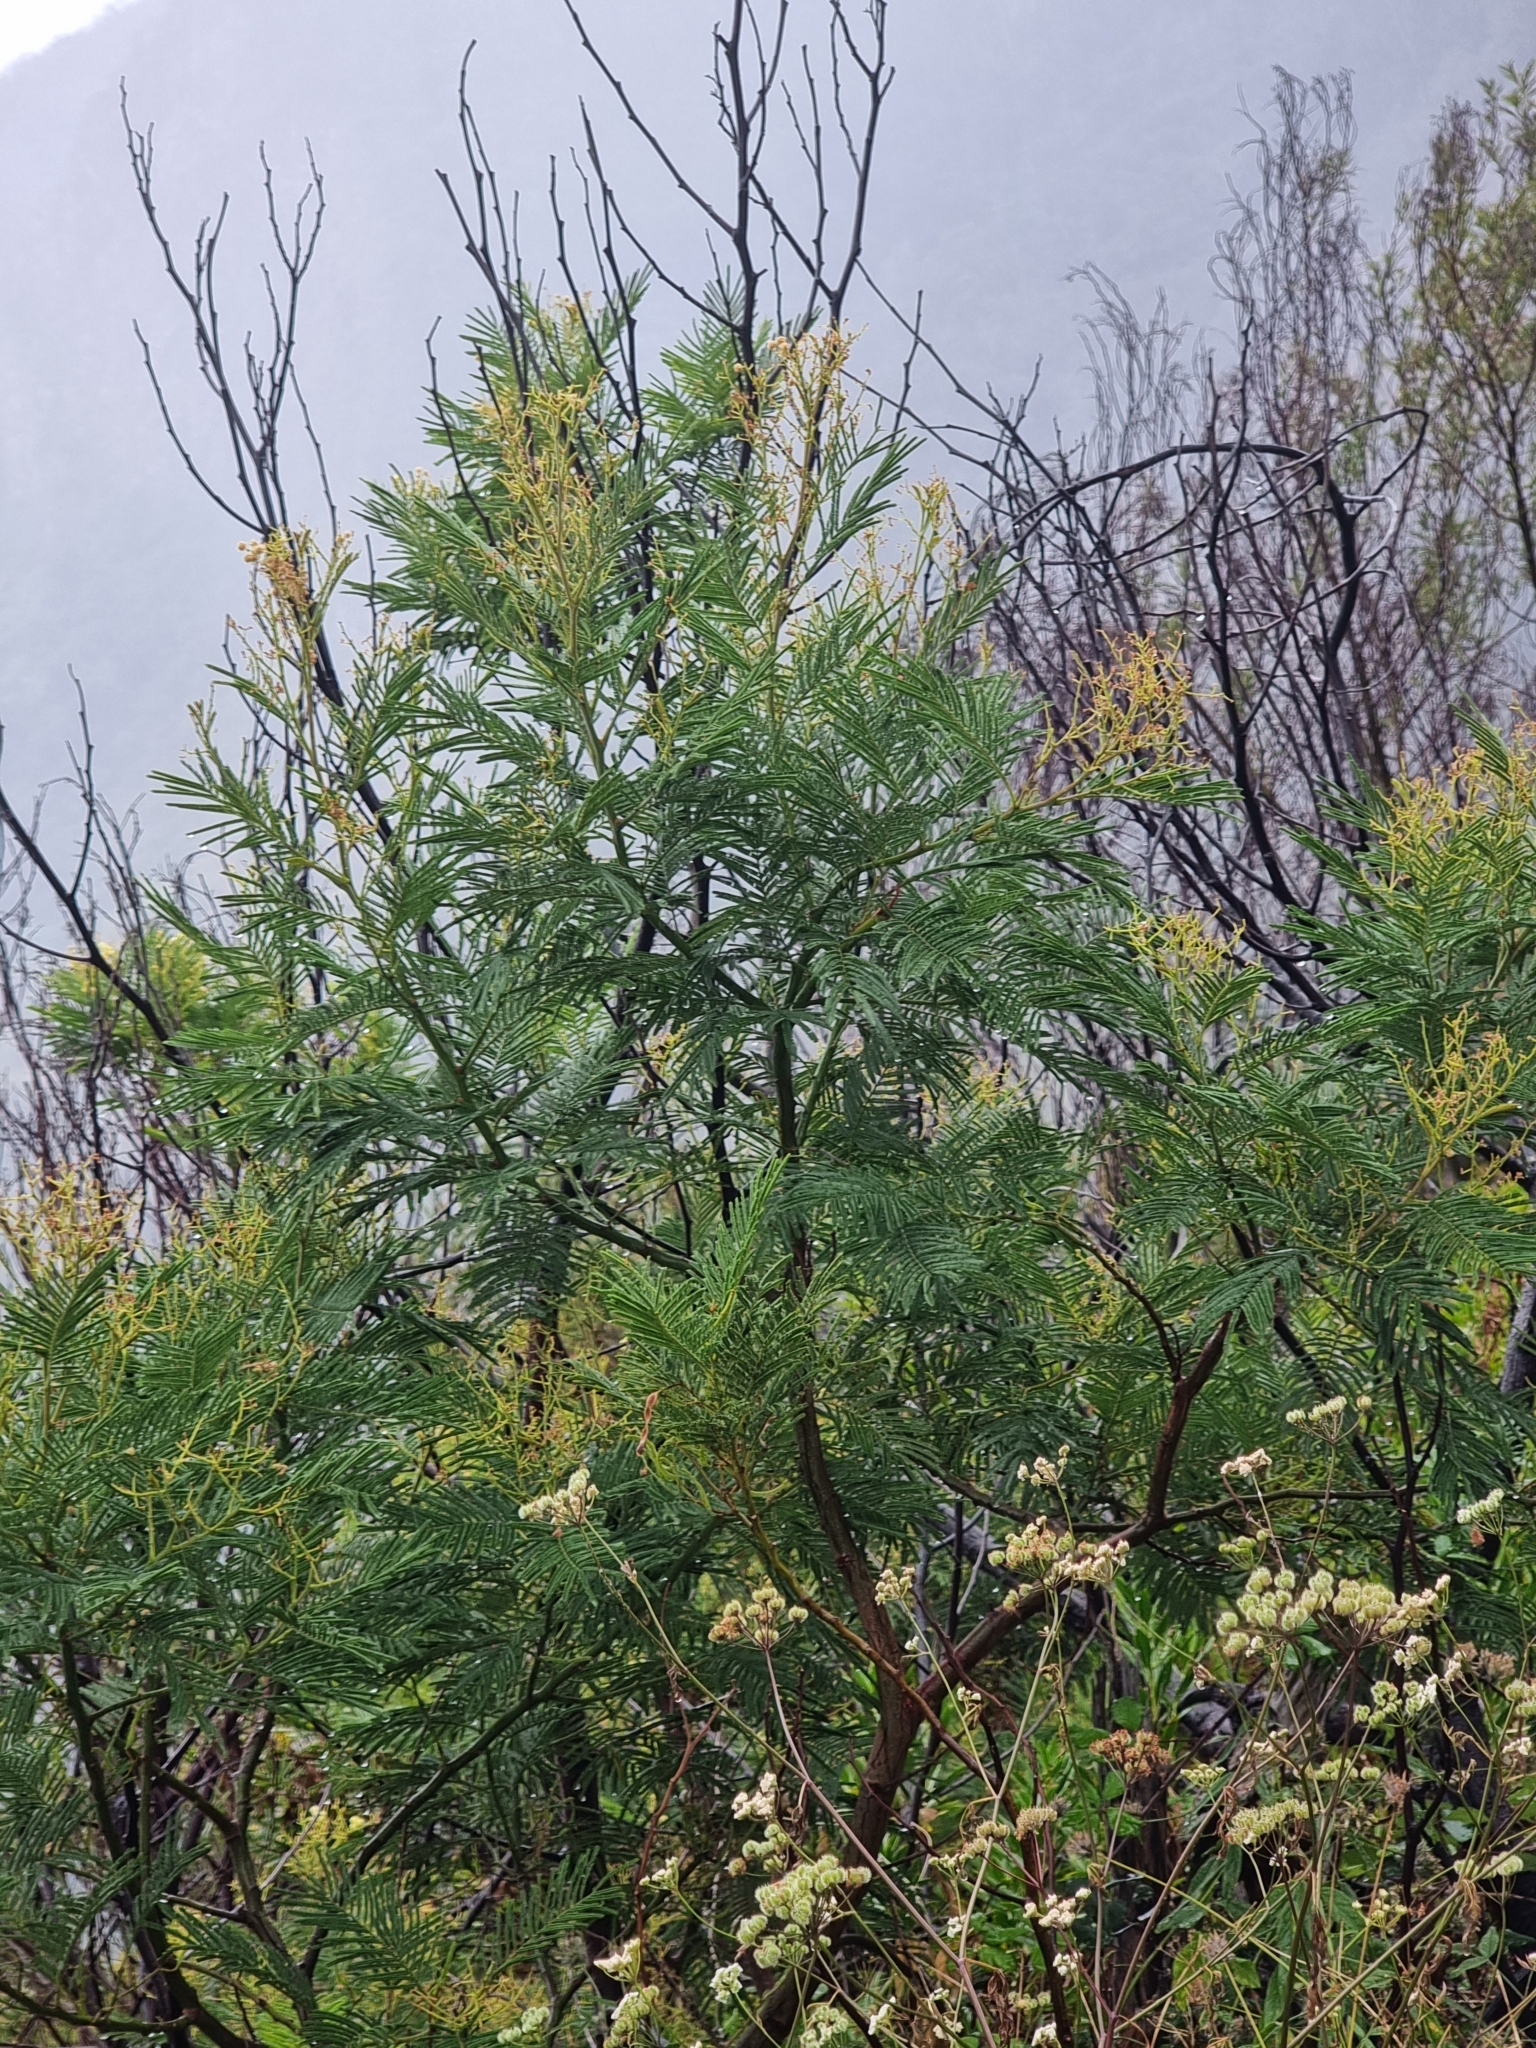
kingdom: Plantae
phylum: Tracheophyta
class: Magnoliopsida
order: Fabales
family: Fabaceae
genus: Acacia
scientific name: Acacia mearnsii
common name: Black wattle
